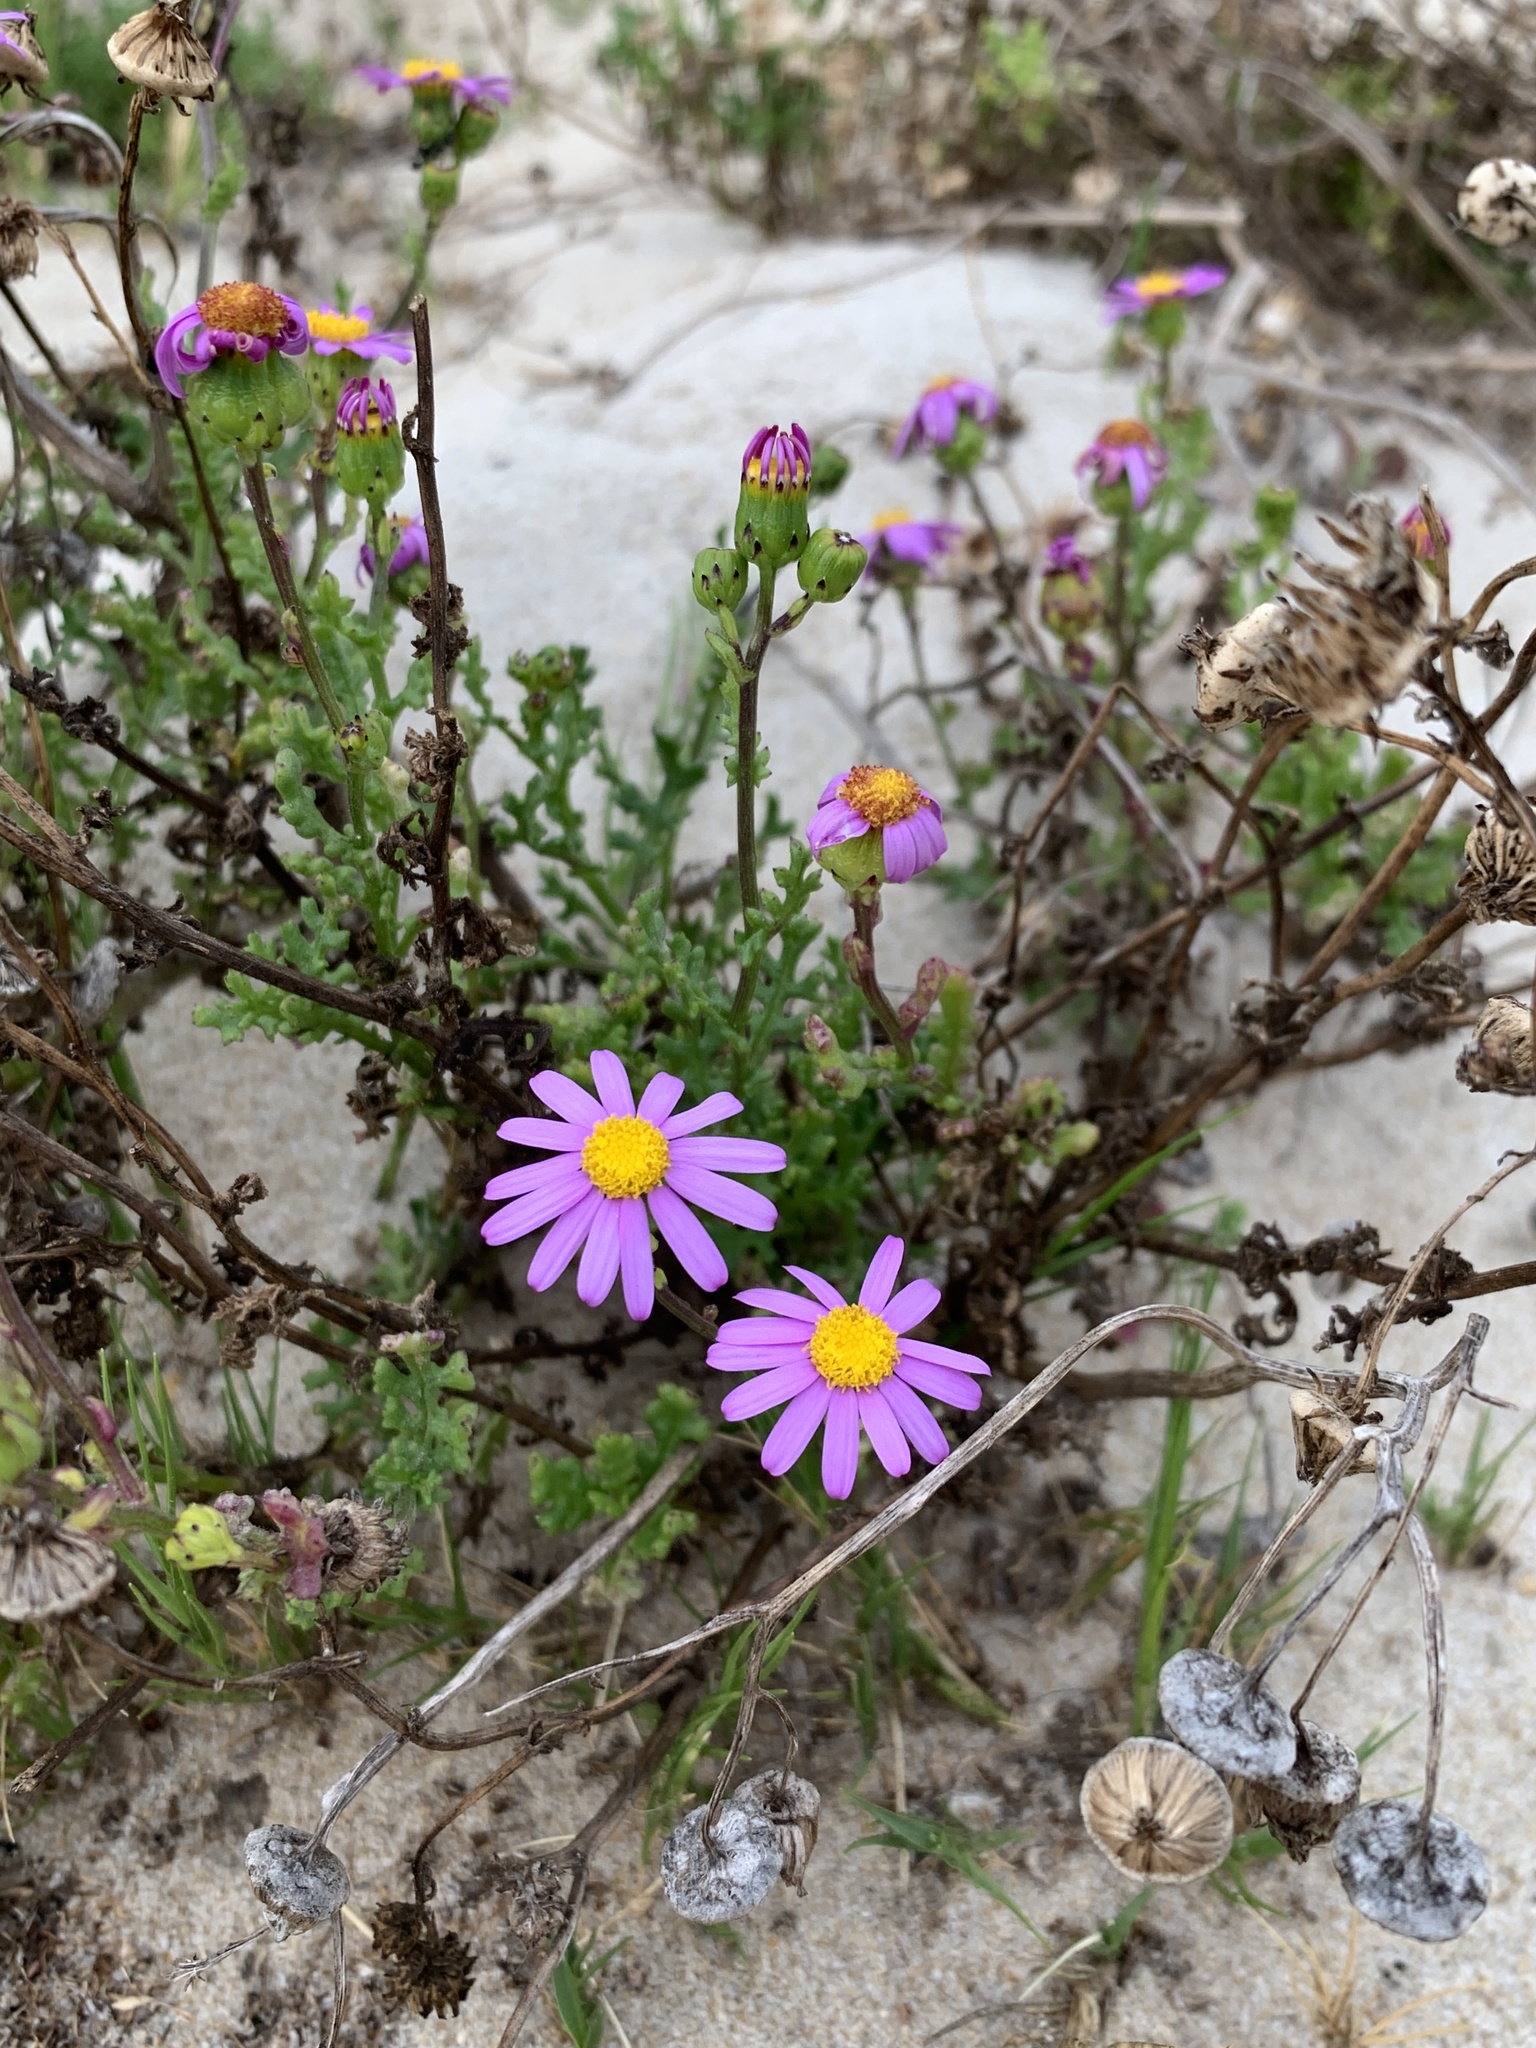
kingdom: Plantae
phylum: Tracheophyta
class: Magnoliopsida
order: Asterales
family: Asteraceae
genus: Senecio
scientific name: Senecio elegans
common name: Purple groundsel
